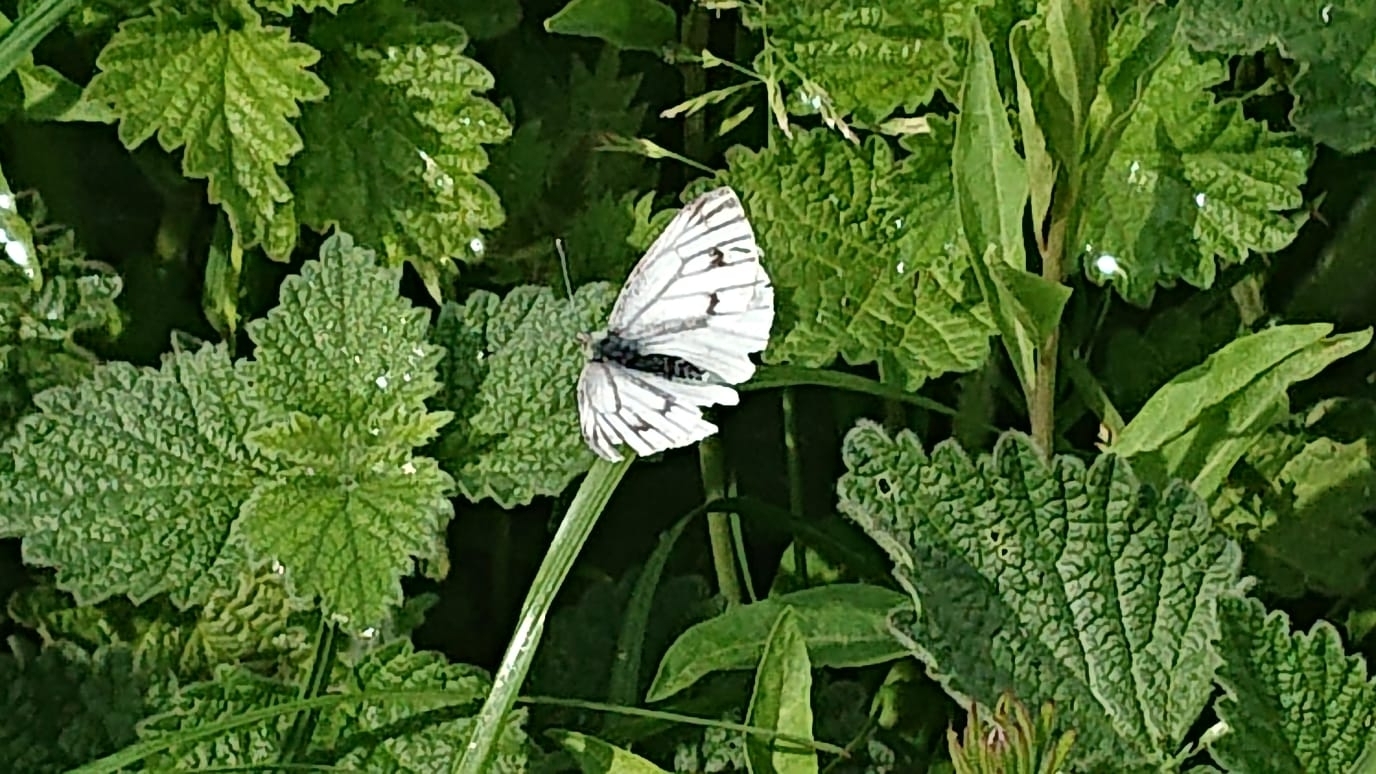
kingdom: Animalia
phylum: Arthropoda
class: Insecta
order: Lepidoptera
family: Pieridae
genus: Pieris
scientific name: Pieris napi
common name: Green-veined white
